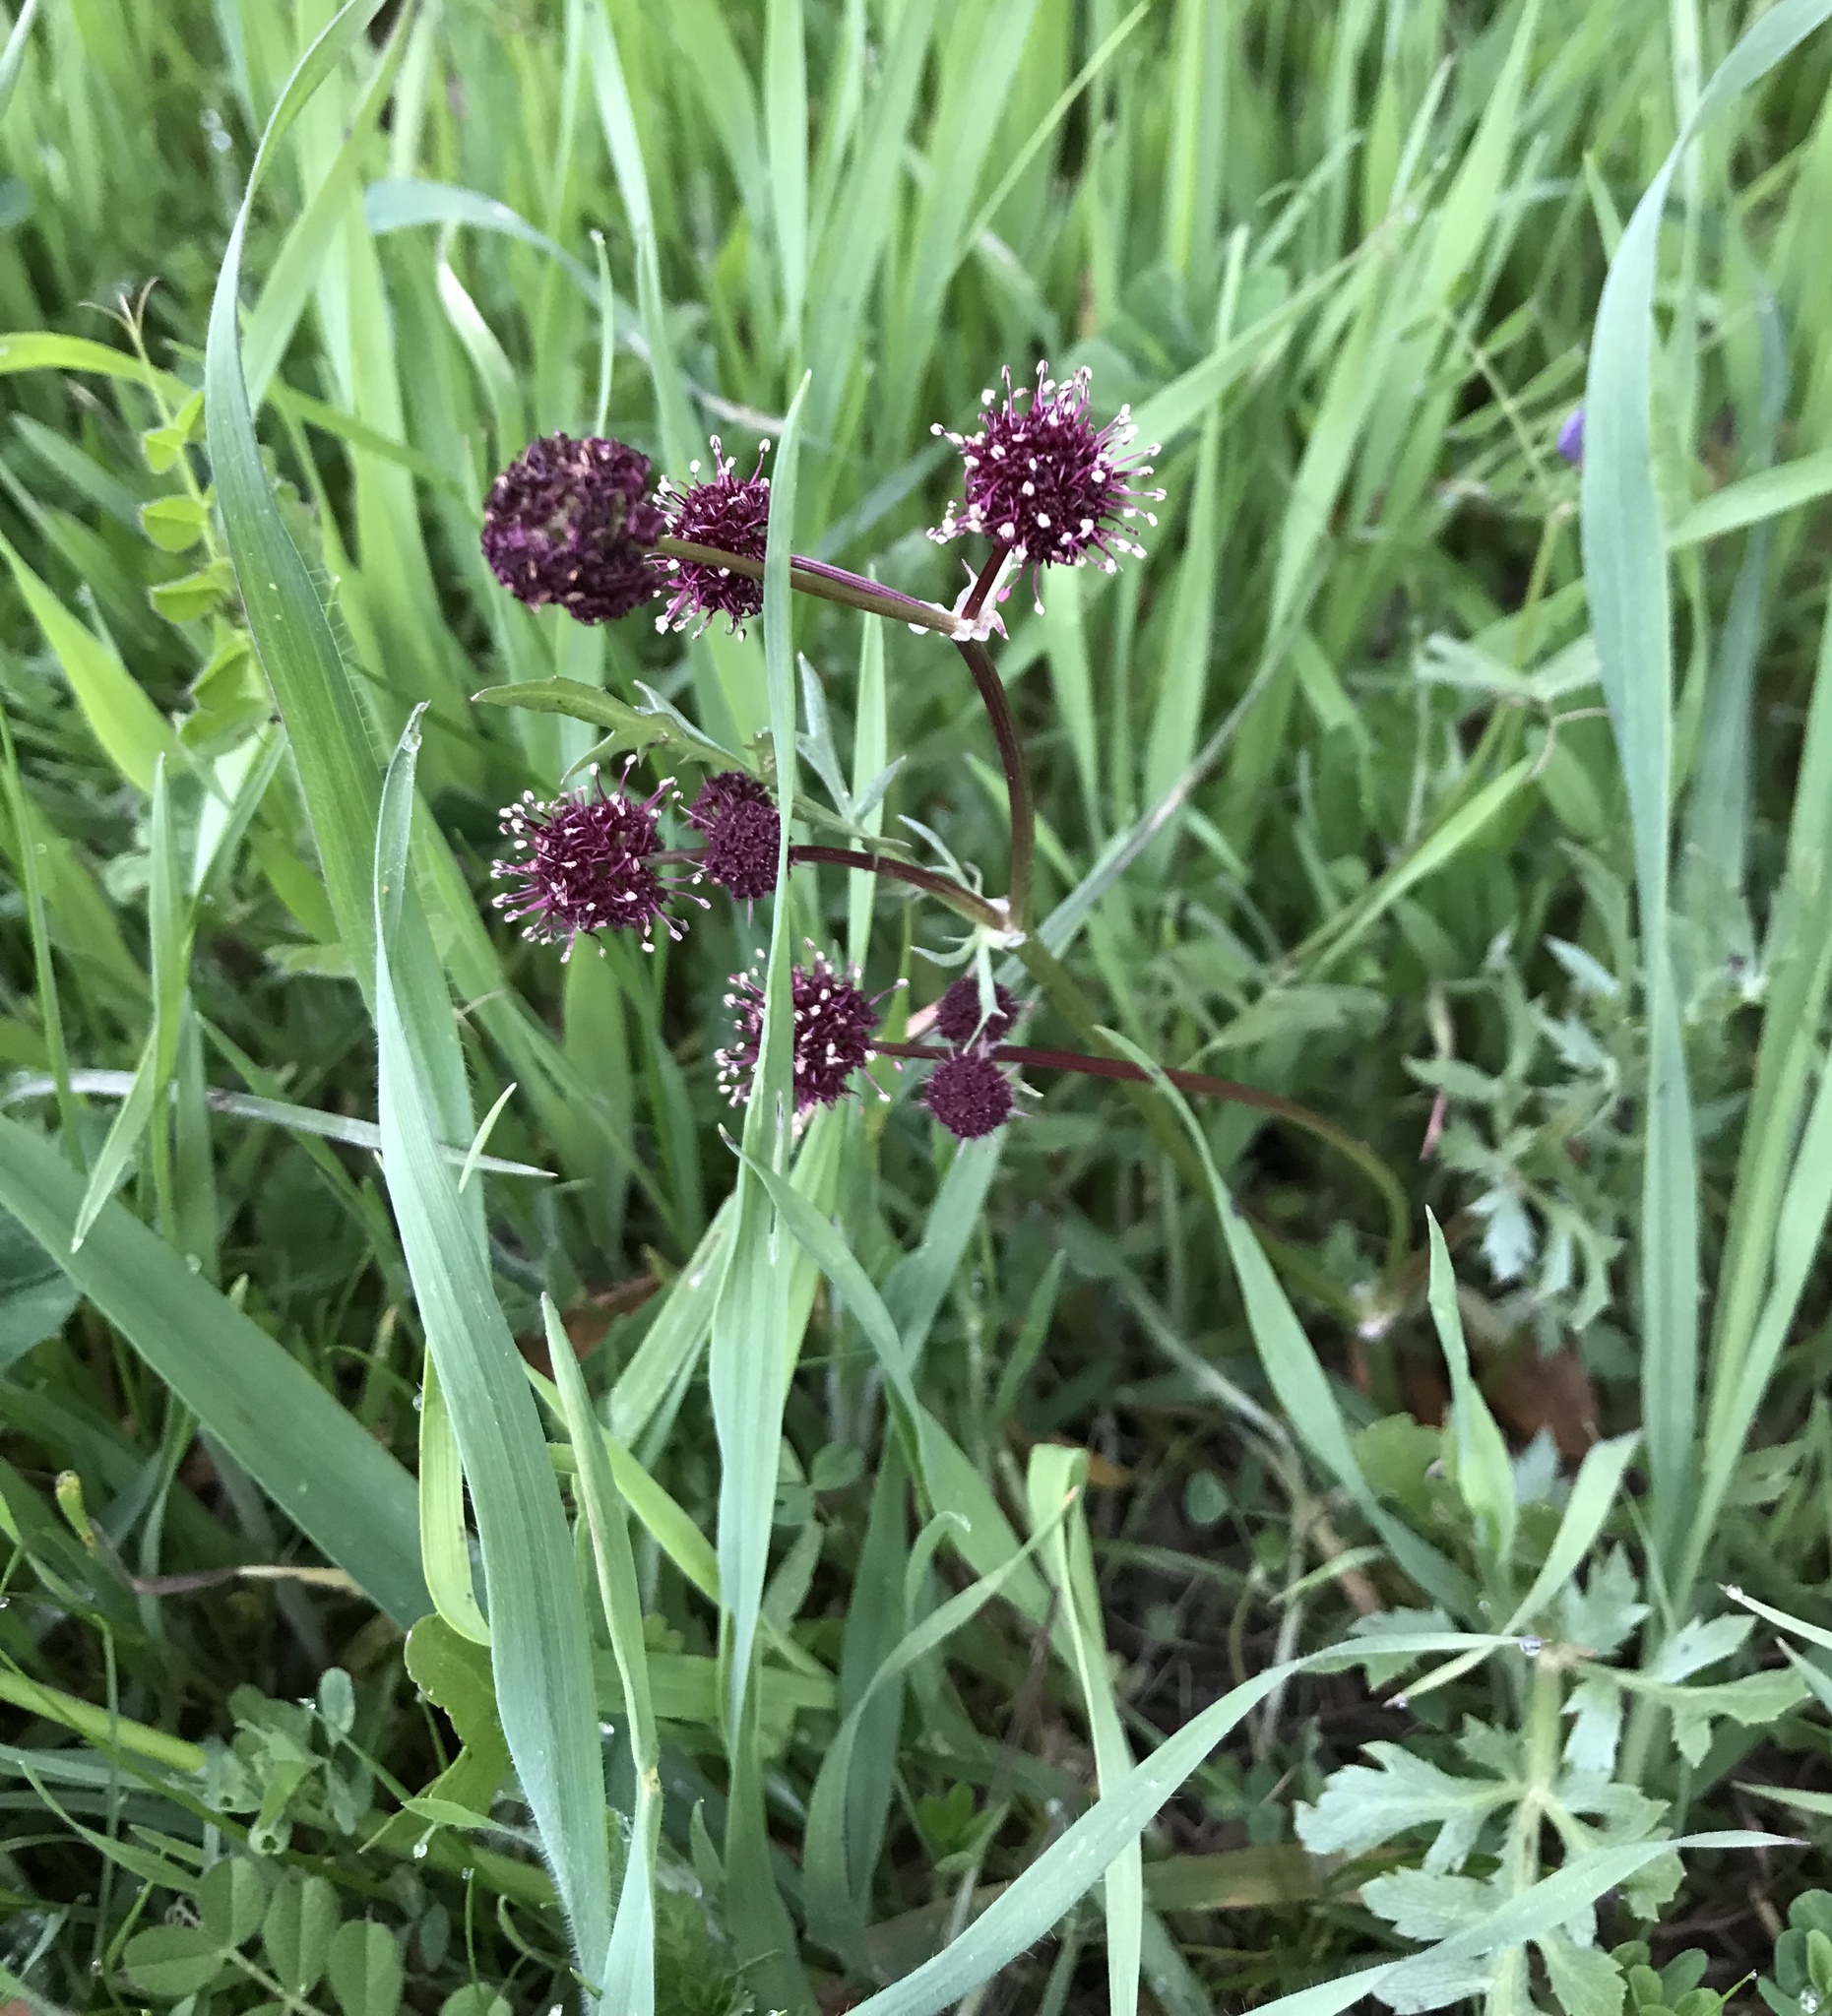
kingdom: Plantae
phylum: Tracheophyta
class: Magnoliopsida
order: Apiales
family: Apiaceae
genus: Sanicula
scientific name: Sanicula bipinnatifida
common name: Shoe-buttons
